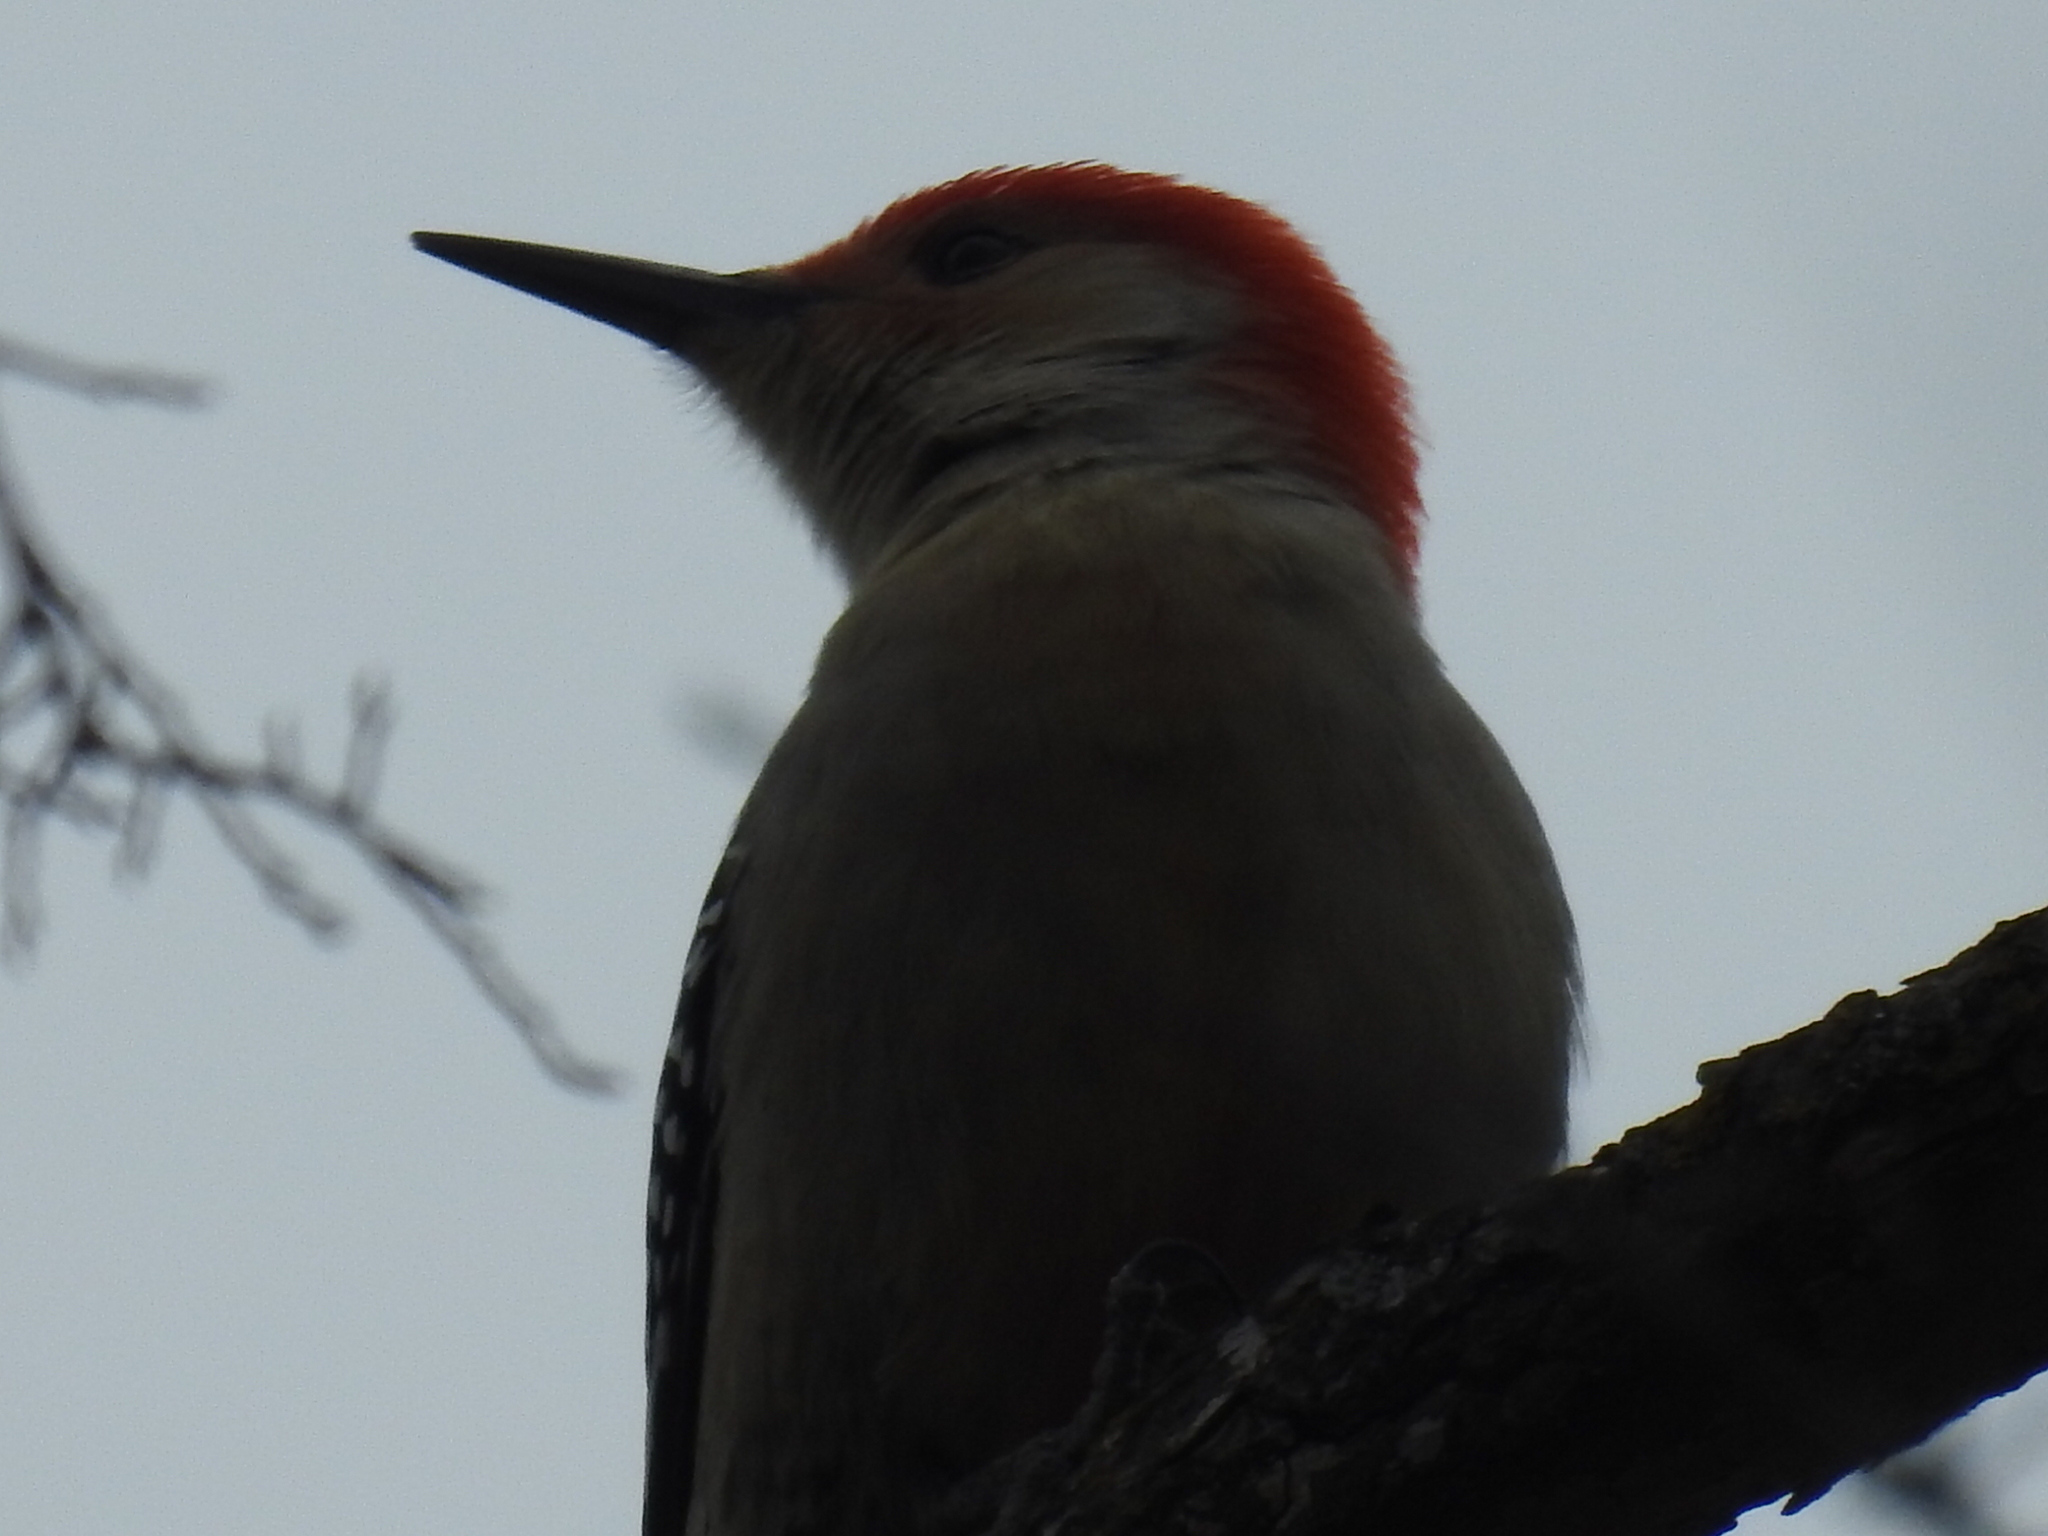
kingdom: Animalia
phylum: Chordata
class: Aves
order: Piciformes
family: Picidae
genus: Melanerpes
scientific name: Melanerpes carolinus
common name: Red-bellied woodpecker
